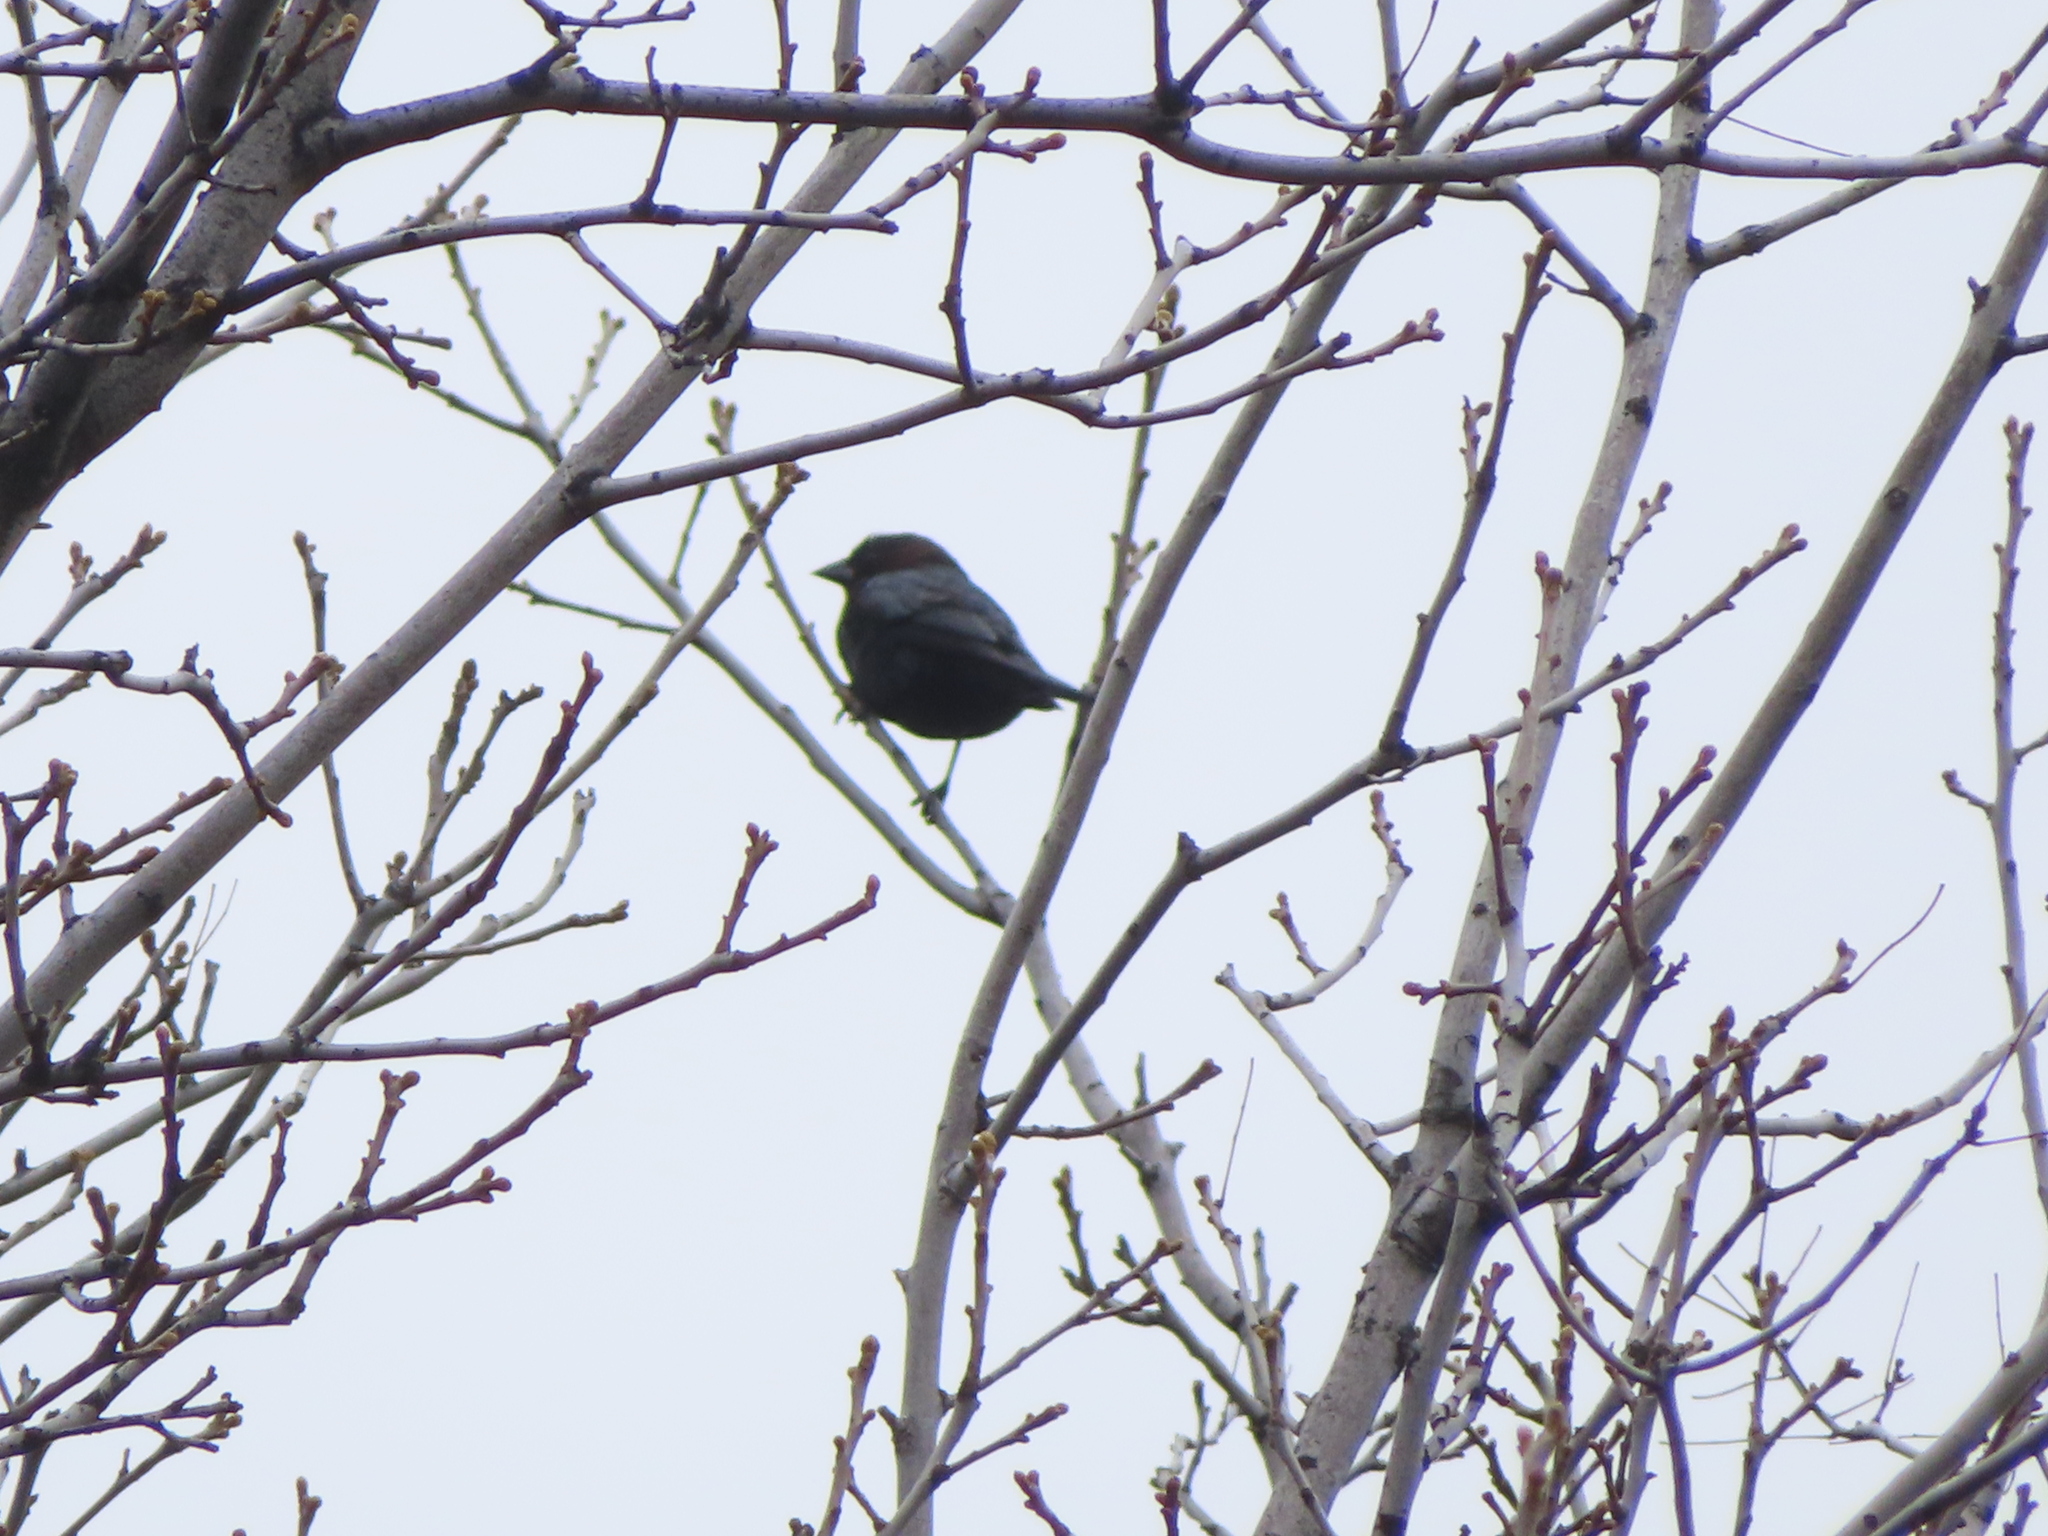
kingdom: Animalia
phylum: Chordata
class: Aves
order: Passeriformes
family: Icteridae
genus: Molothrus
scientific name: Molothrus ater
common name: Brown-headed cowbird
